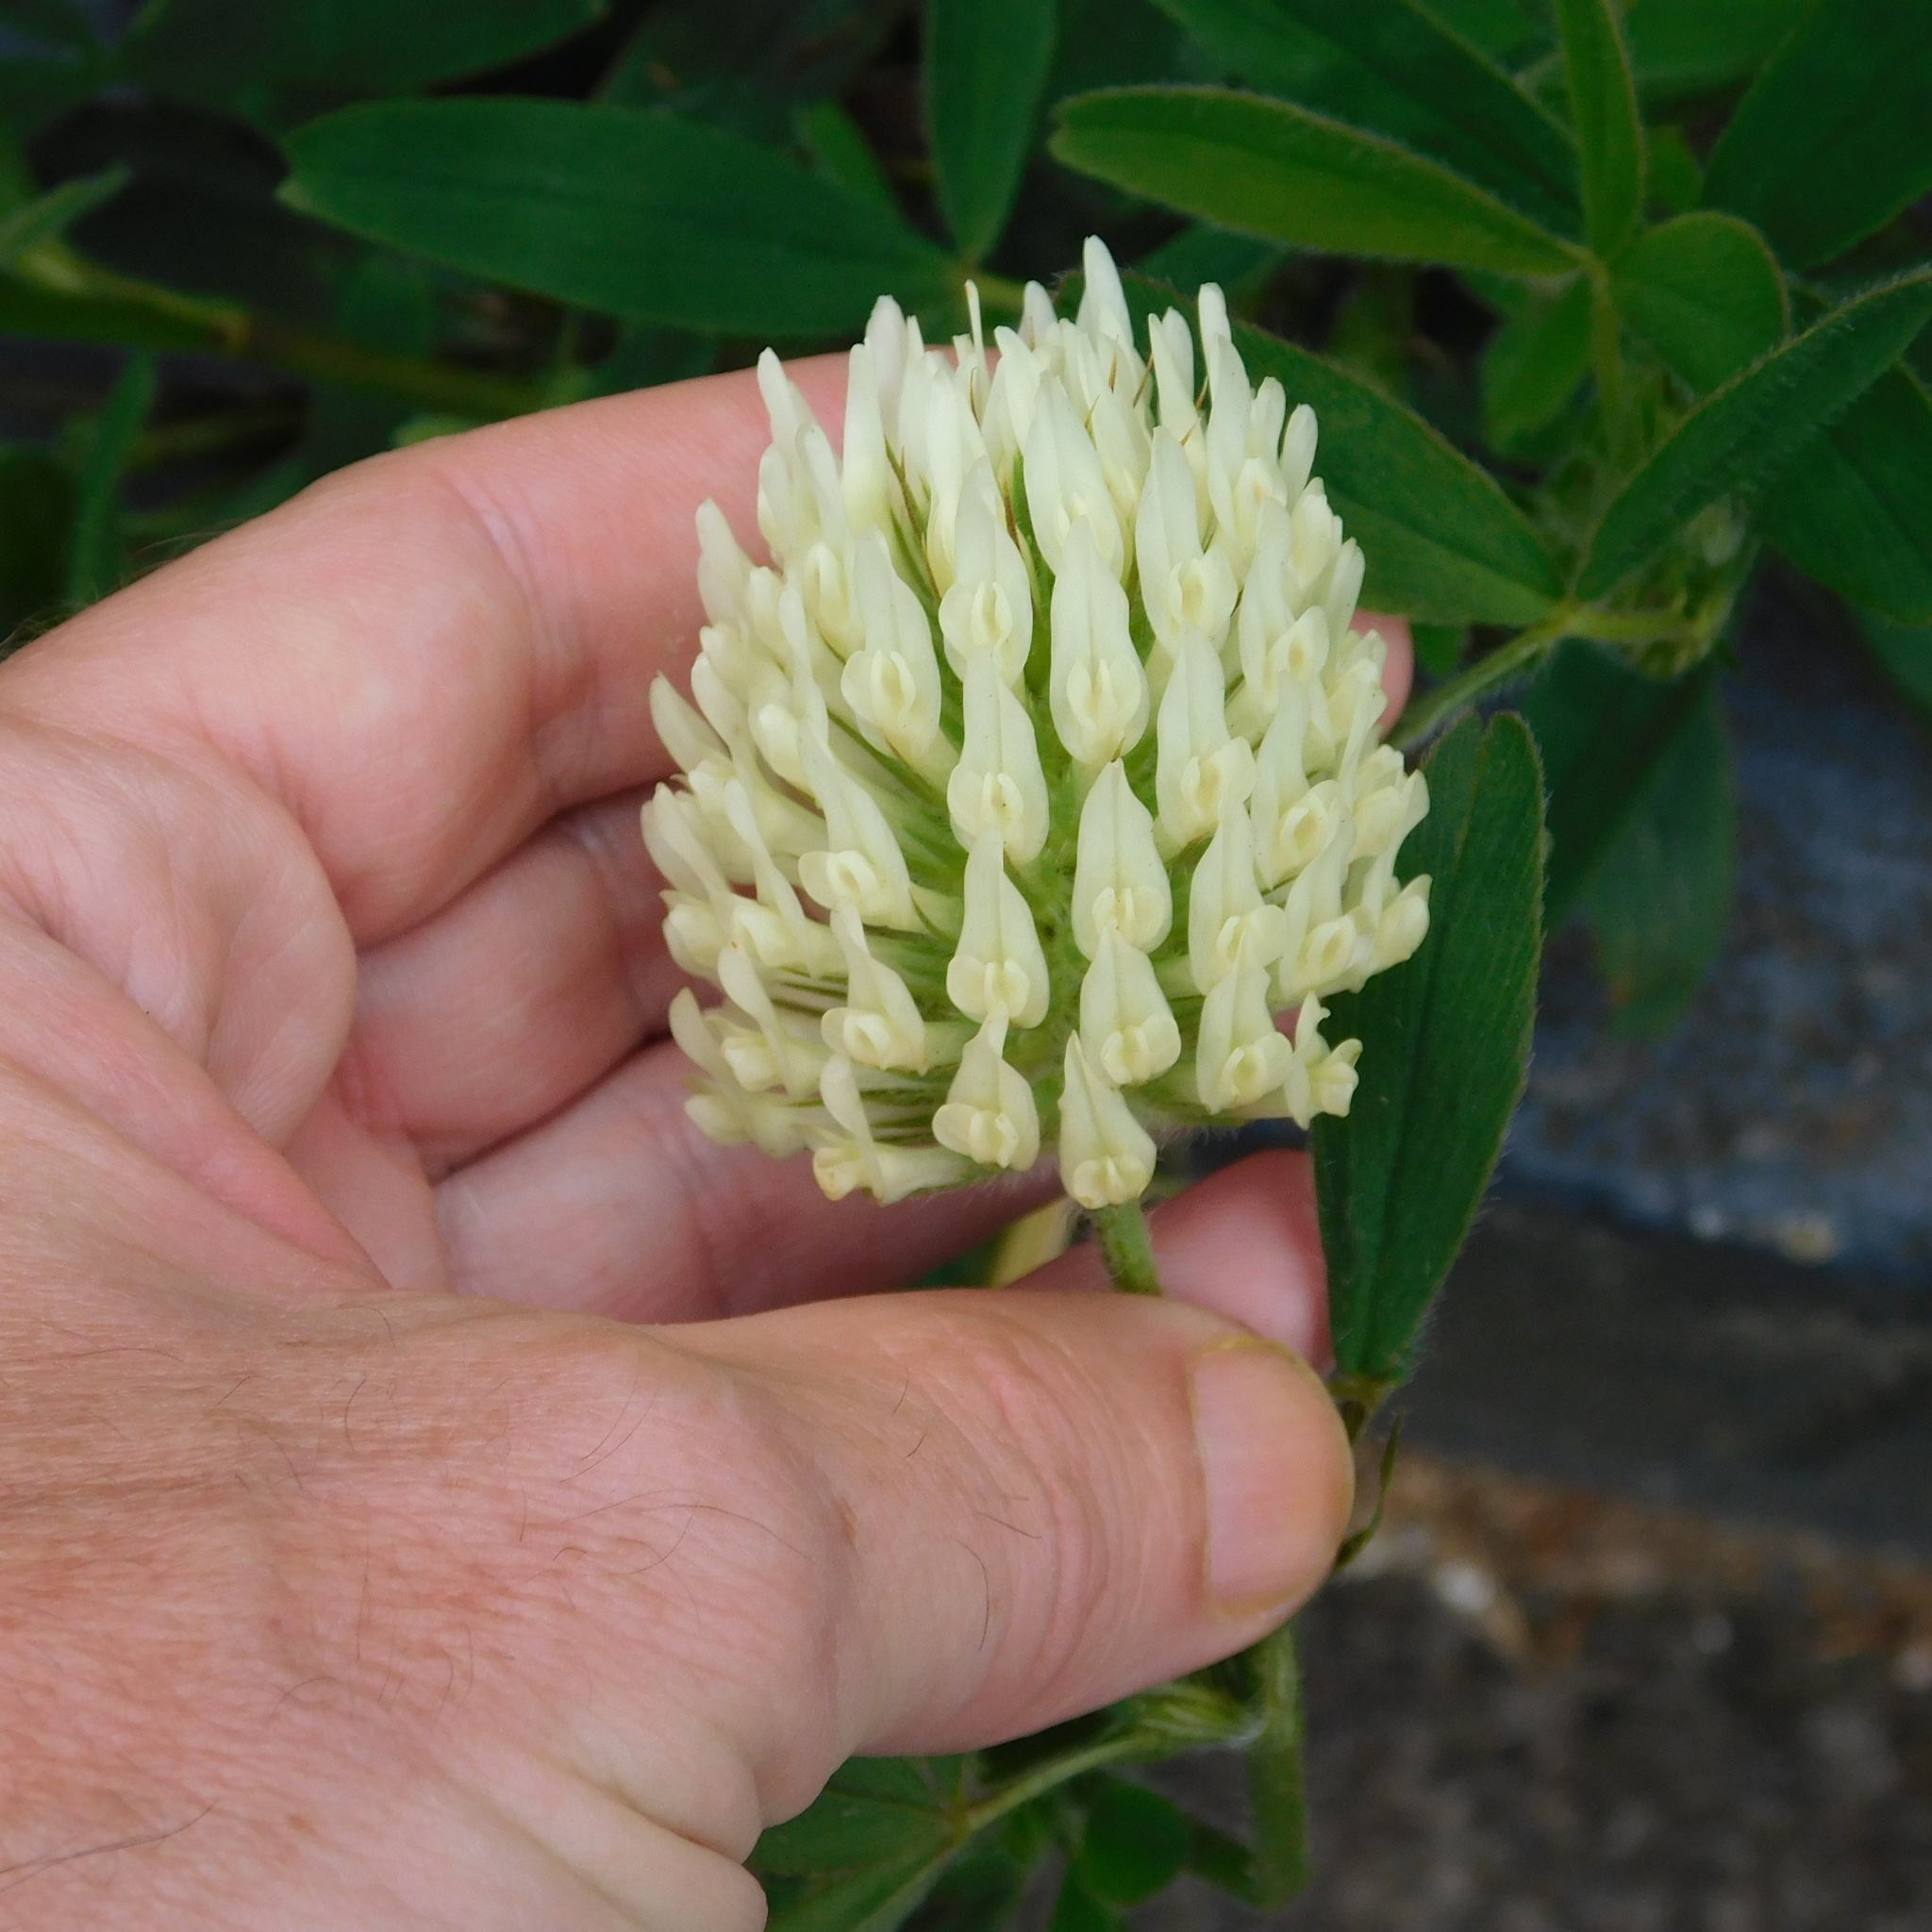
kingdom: Plantae
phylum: Tracheophyta
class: Magnoliopsida
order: Fabales
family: Fabaceae
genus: Trifolium
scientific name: Trifolium ochroleucon
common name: Sulphur clover
